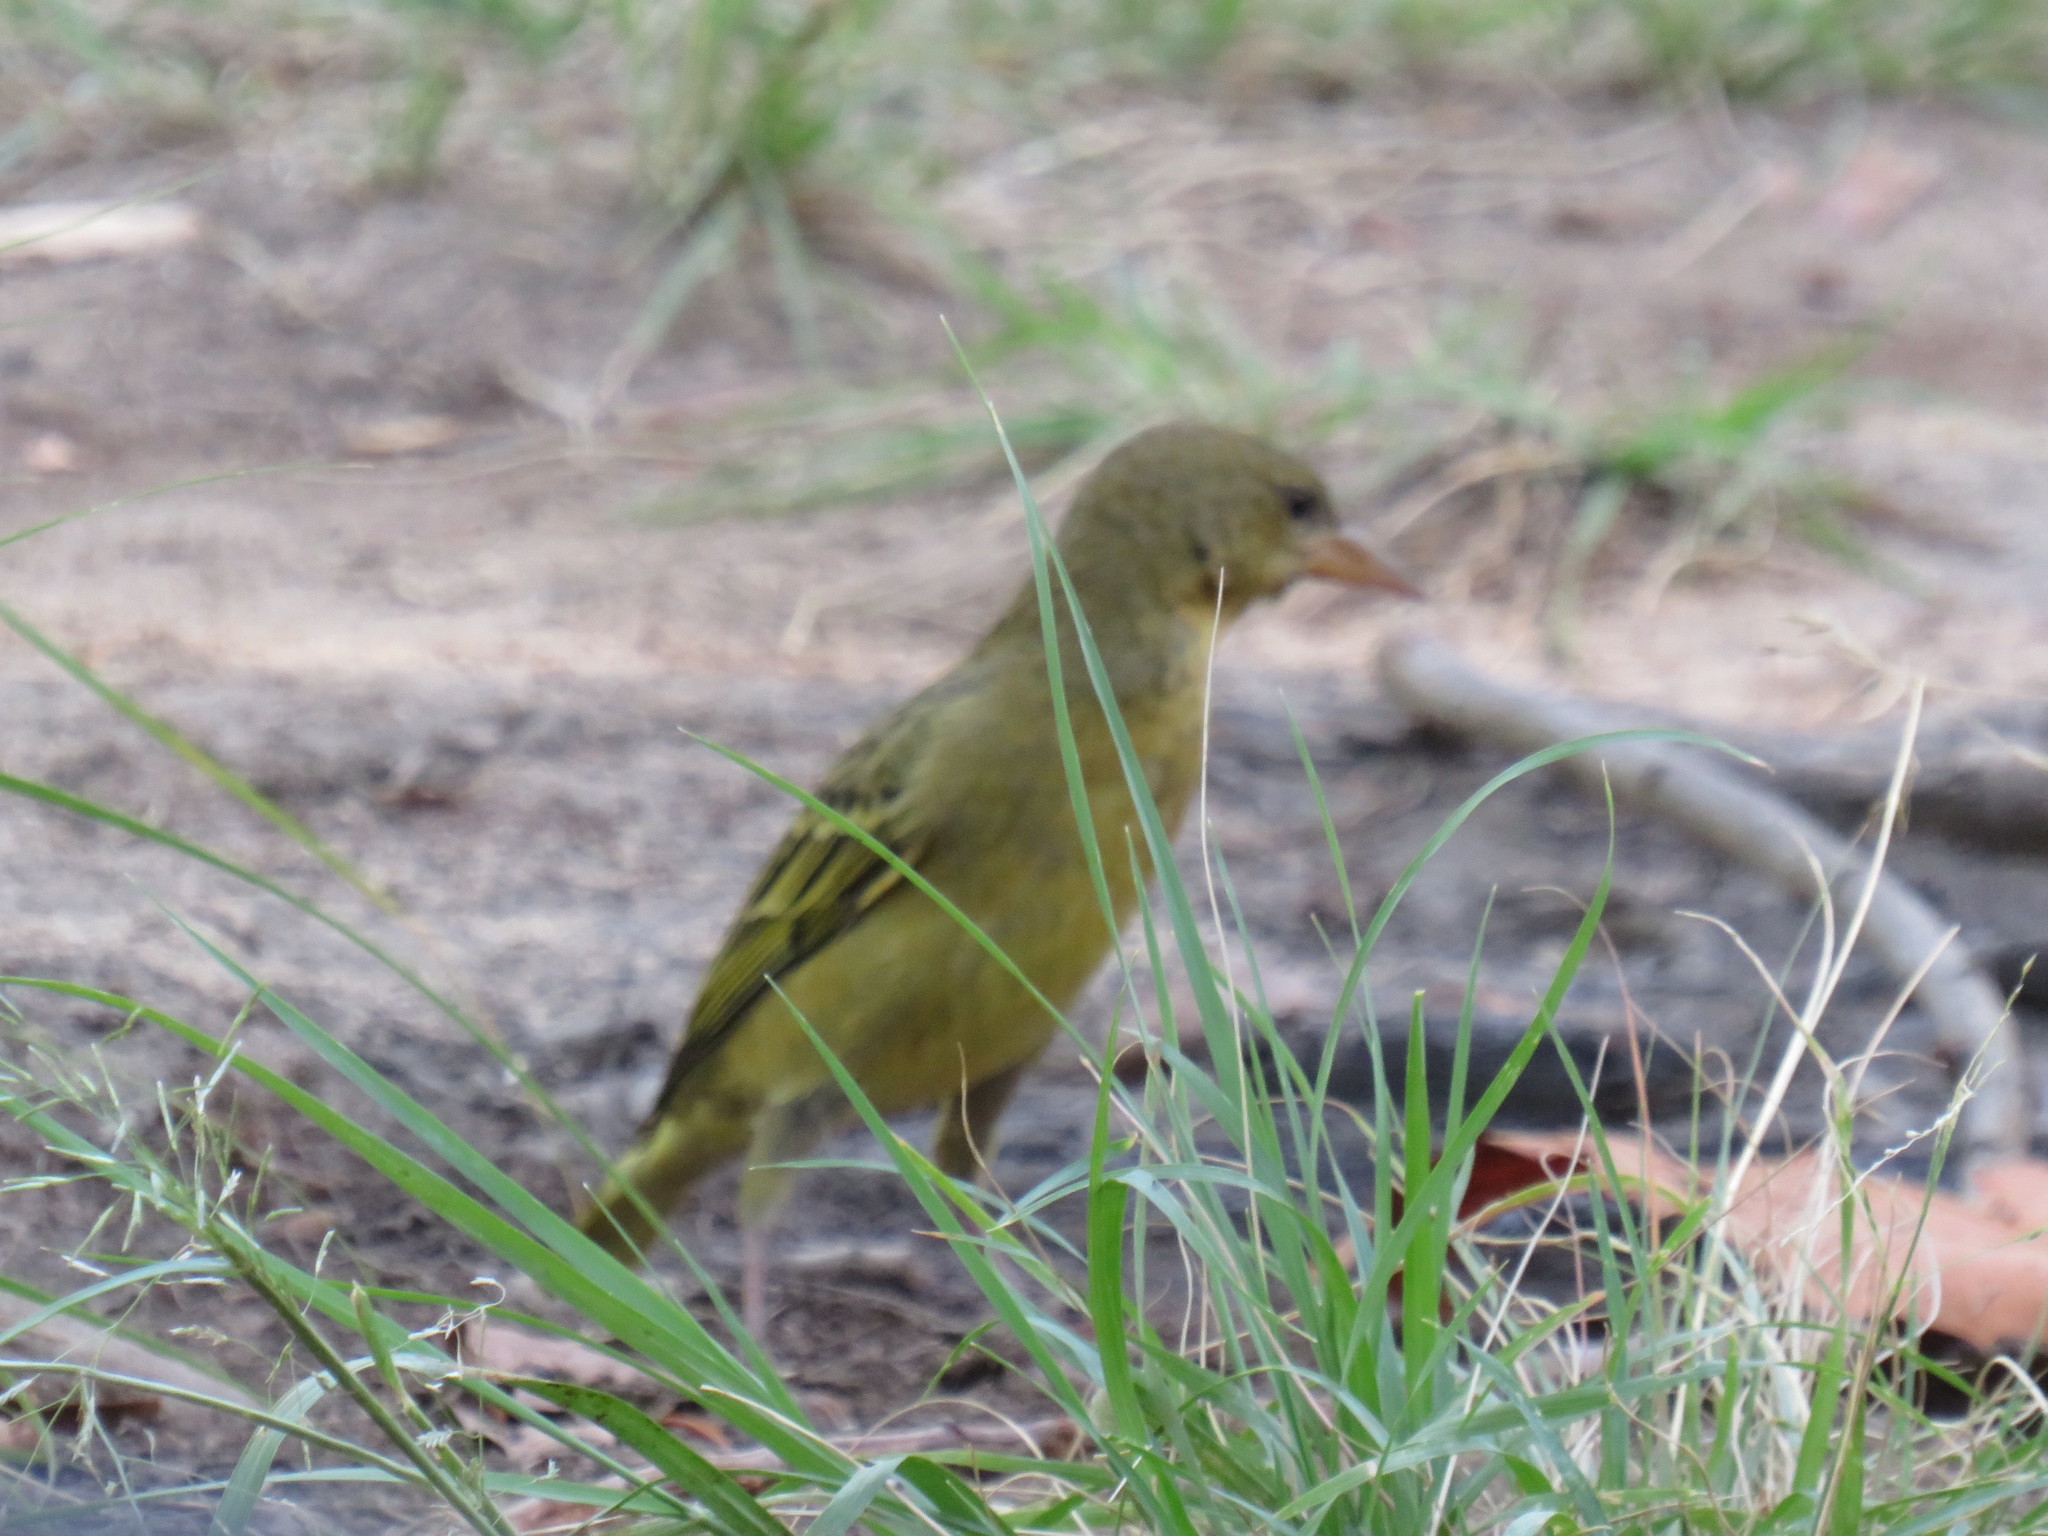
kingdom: Animalia
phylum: Chordata
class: Aves
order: Passeriformes
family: Ploceidae
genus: Ploceus
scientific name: Ploceus capensis
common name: Cape weaver
